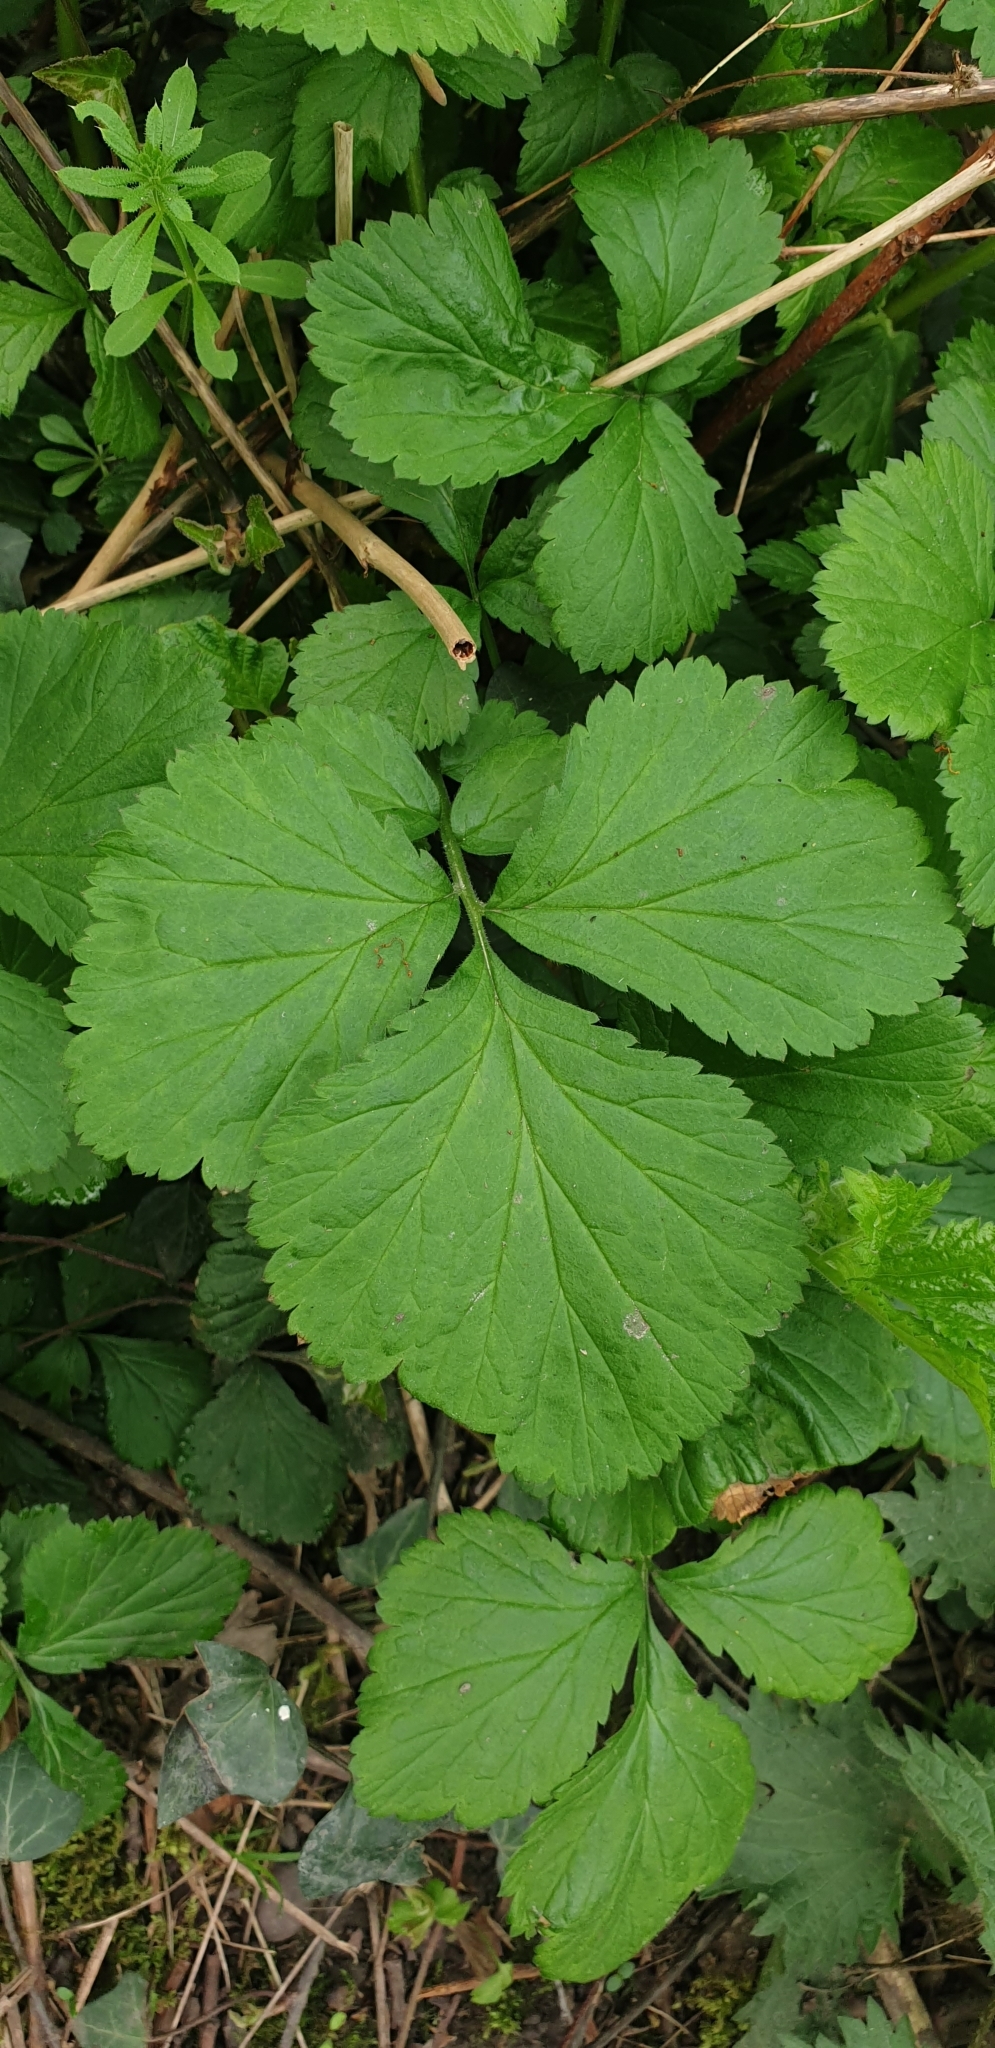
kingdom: Plantae
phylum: Tracheophyta
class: Magnoliopsida
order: Rosales
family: Rosaceae
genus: Geum
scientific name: Geum urbanum
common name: Wood avens
